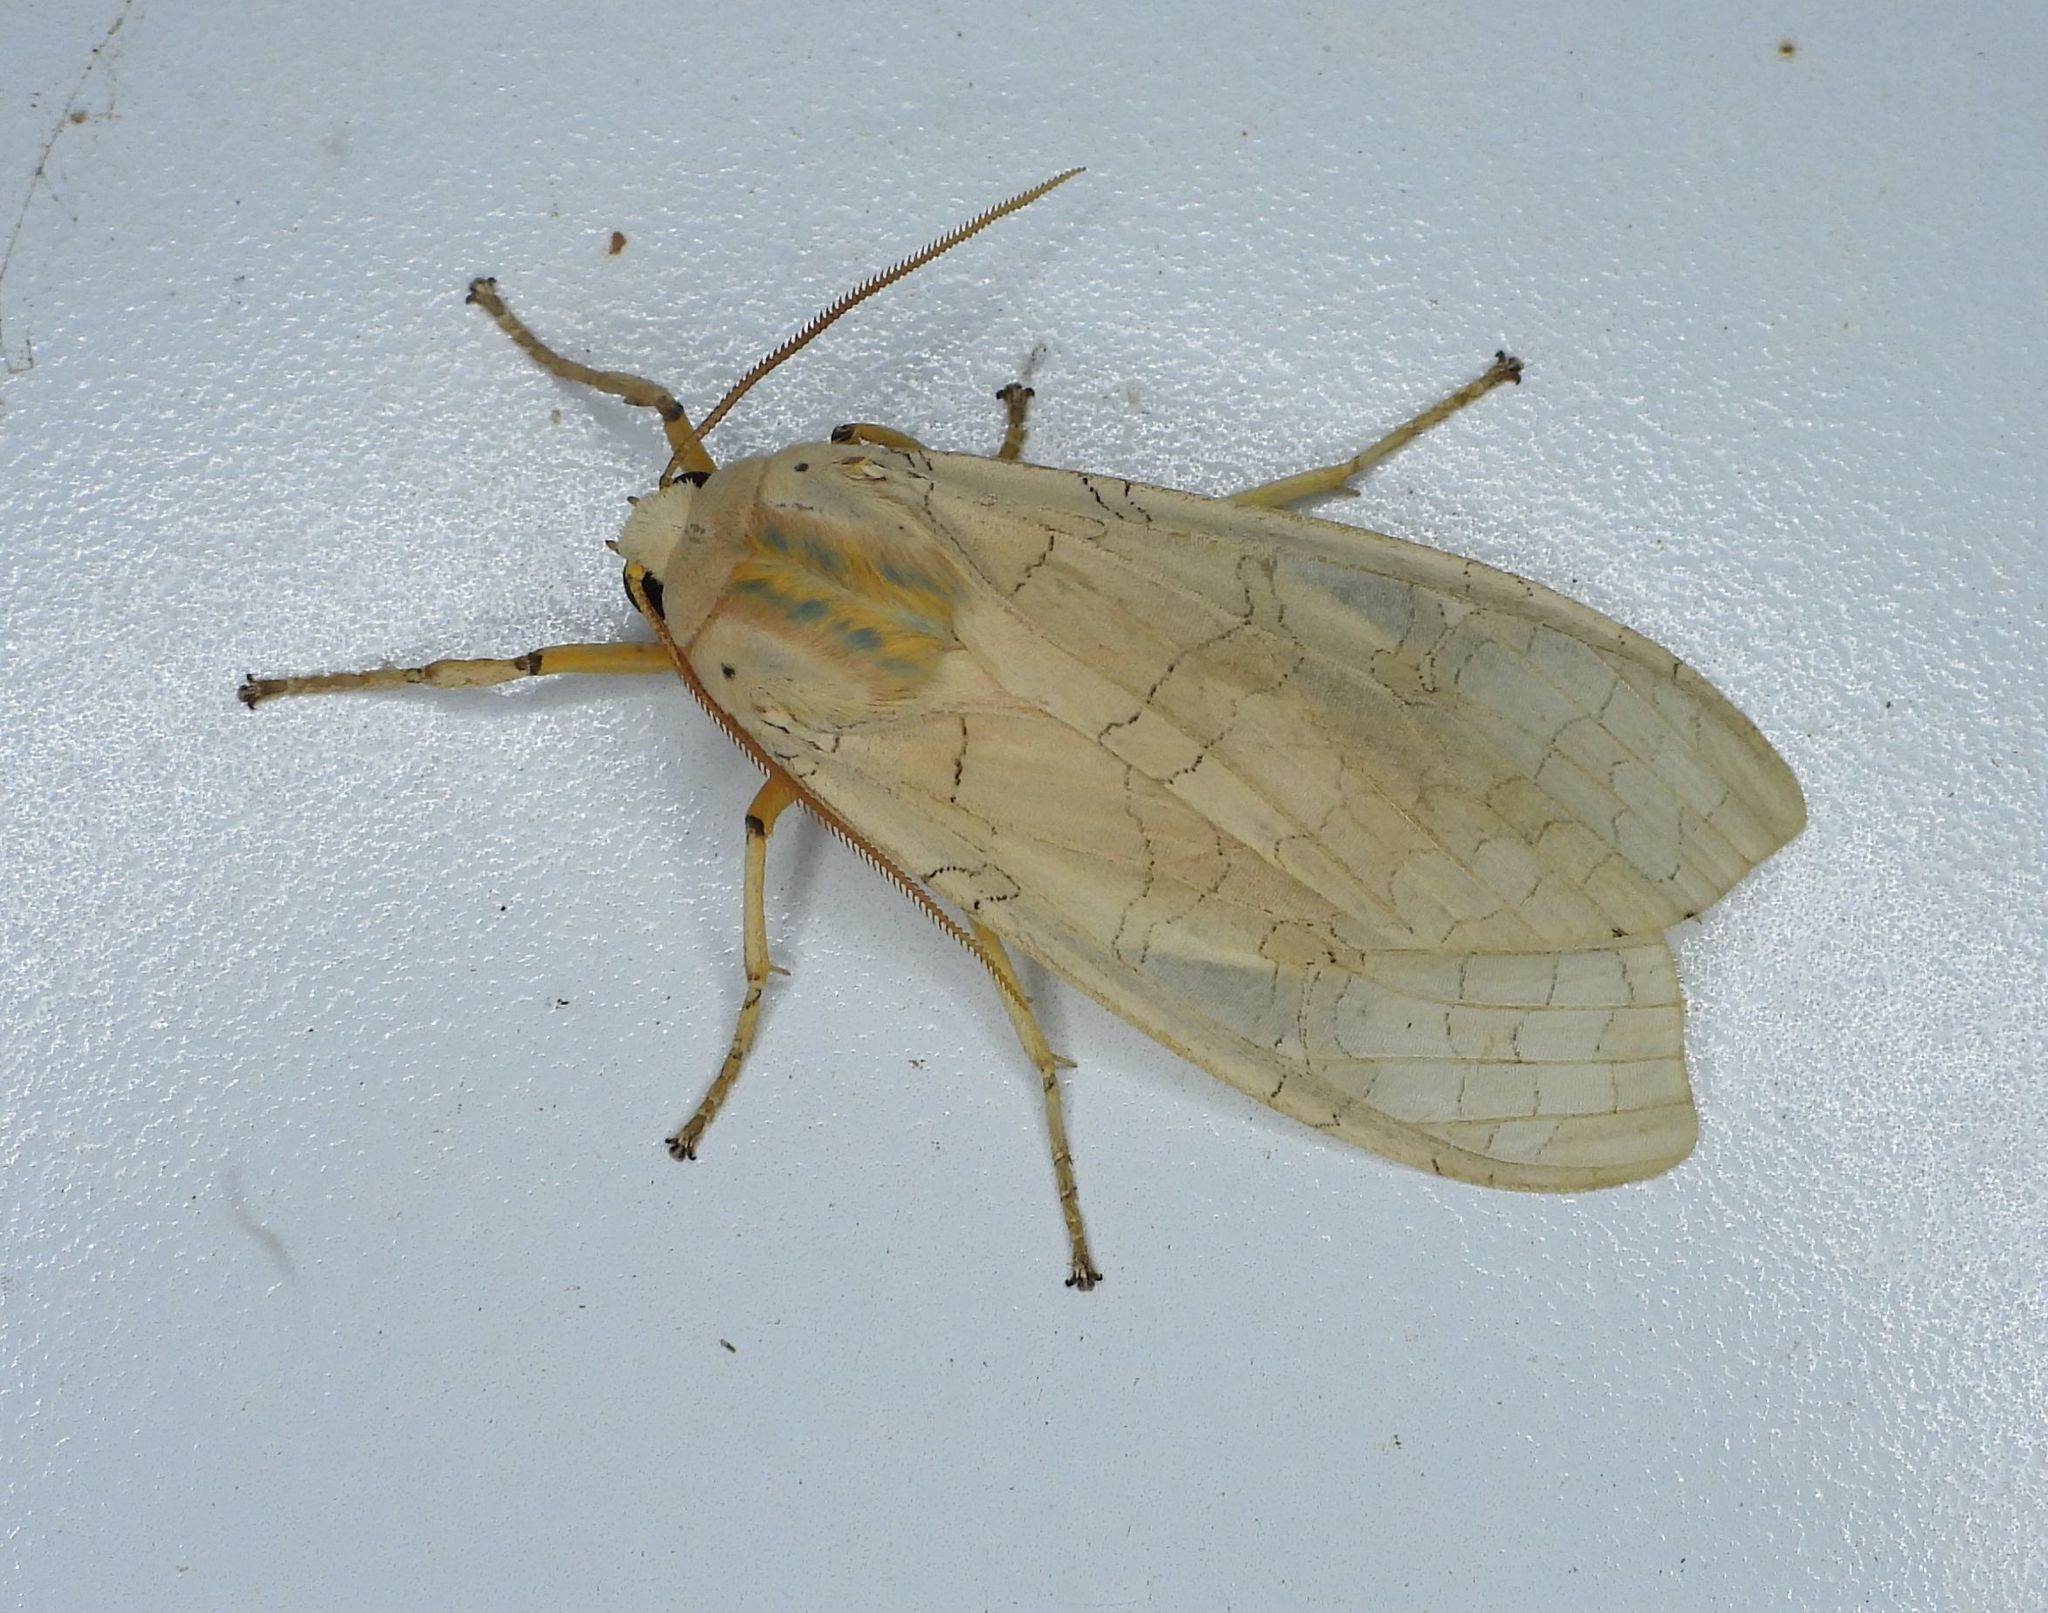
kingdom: Animalia
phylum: Arthropoda
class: Insecta
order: Lepidoptera
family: Erebidae
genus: Halysidota
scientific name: Halysidota tessellaris
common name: Banded tussock moth
